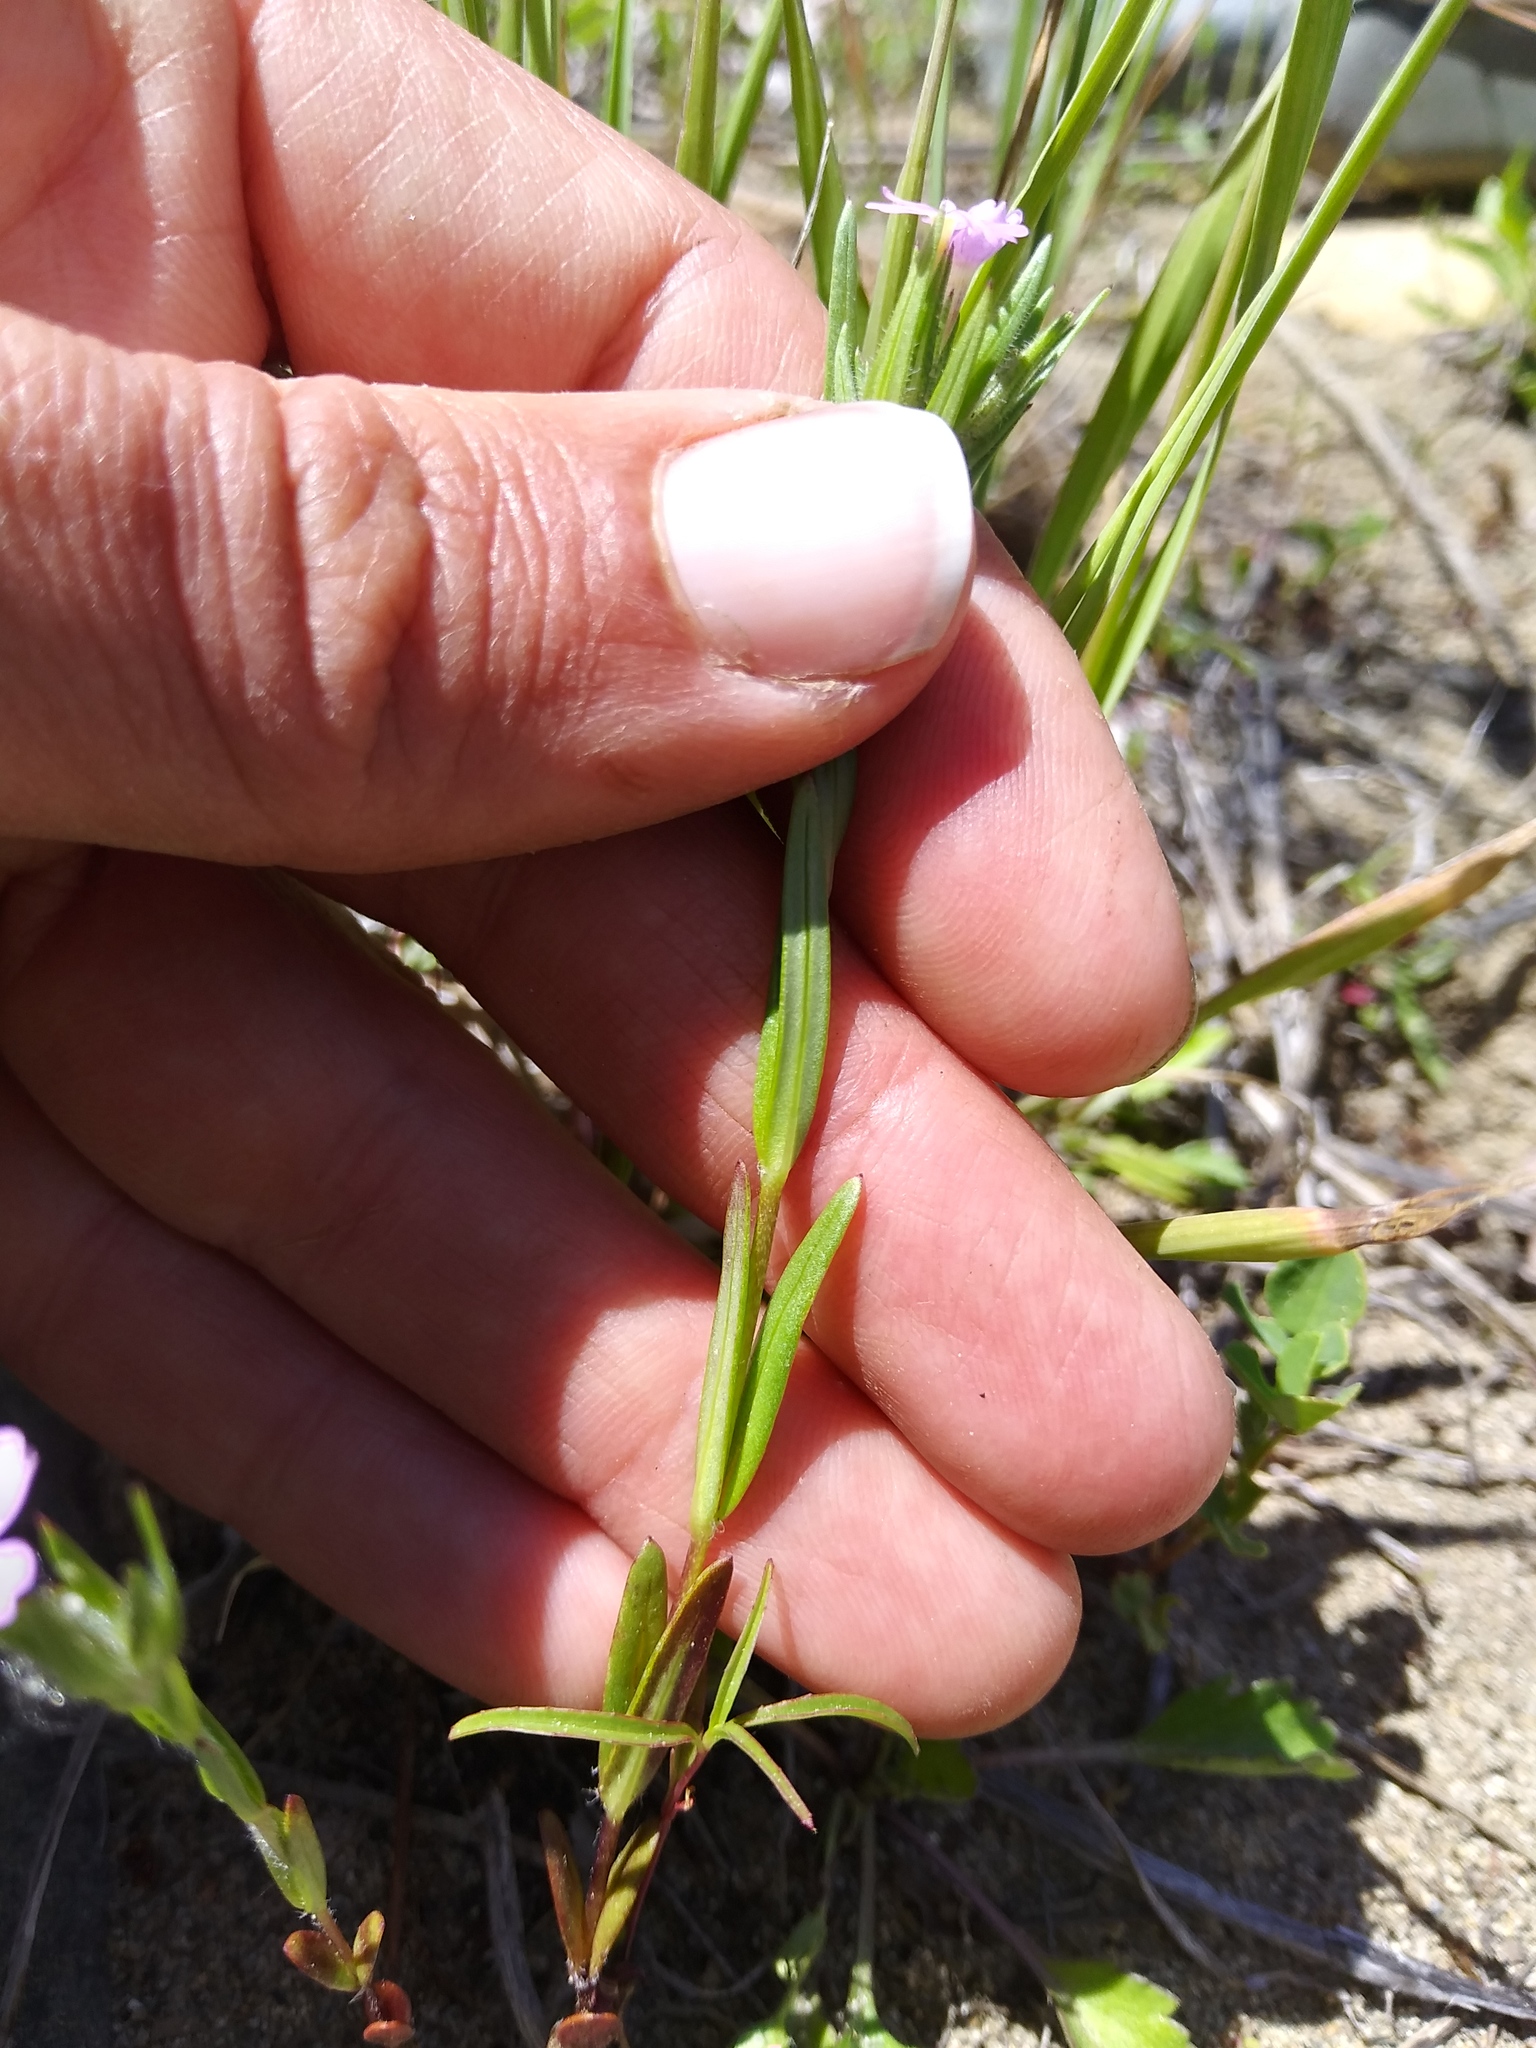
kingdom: Plantae
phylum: Tracheophyta
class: Magnoliopsida
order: Ericales
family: Polemoniaceae
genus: Phlox
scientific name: Phlox gracilis
